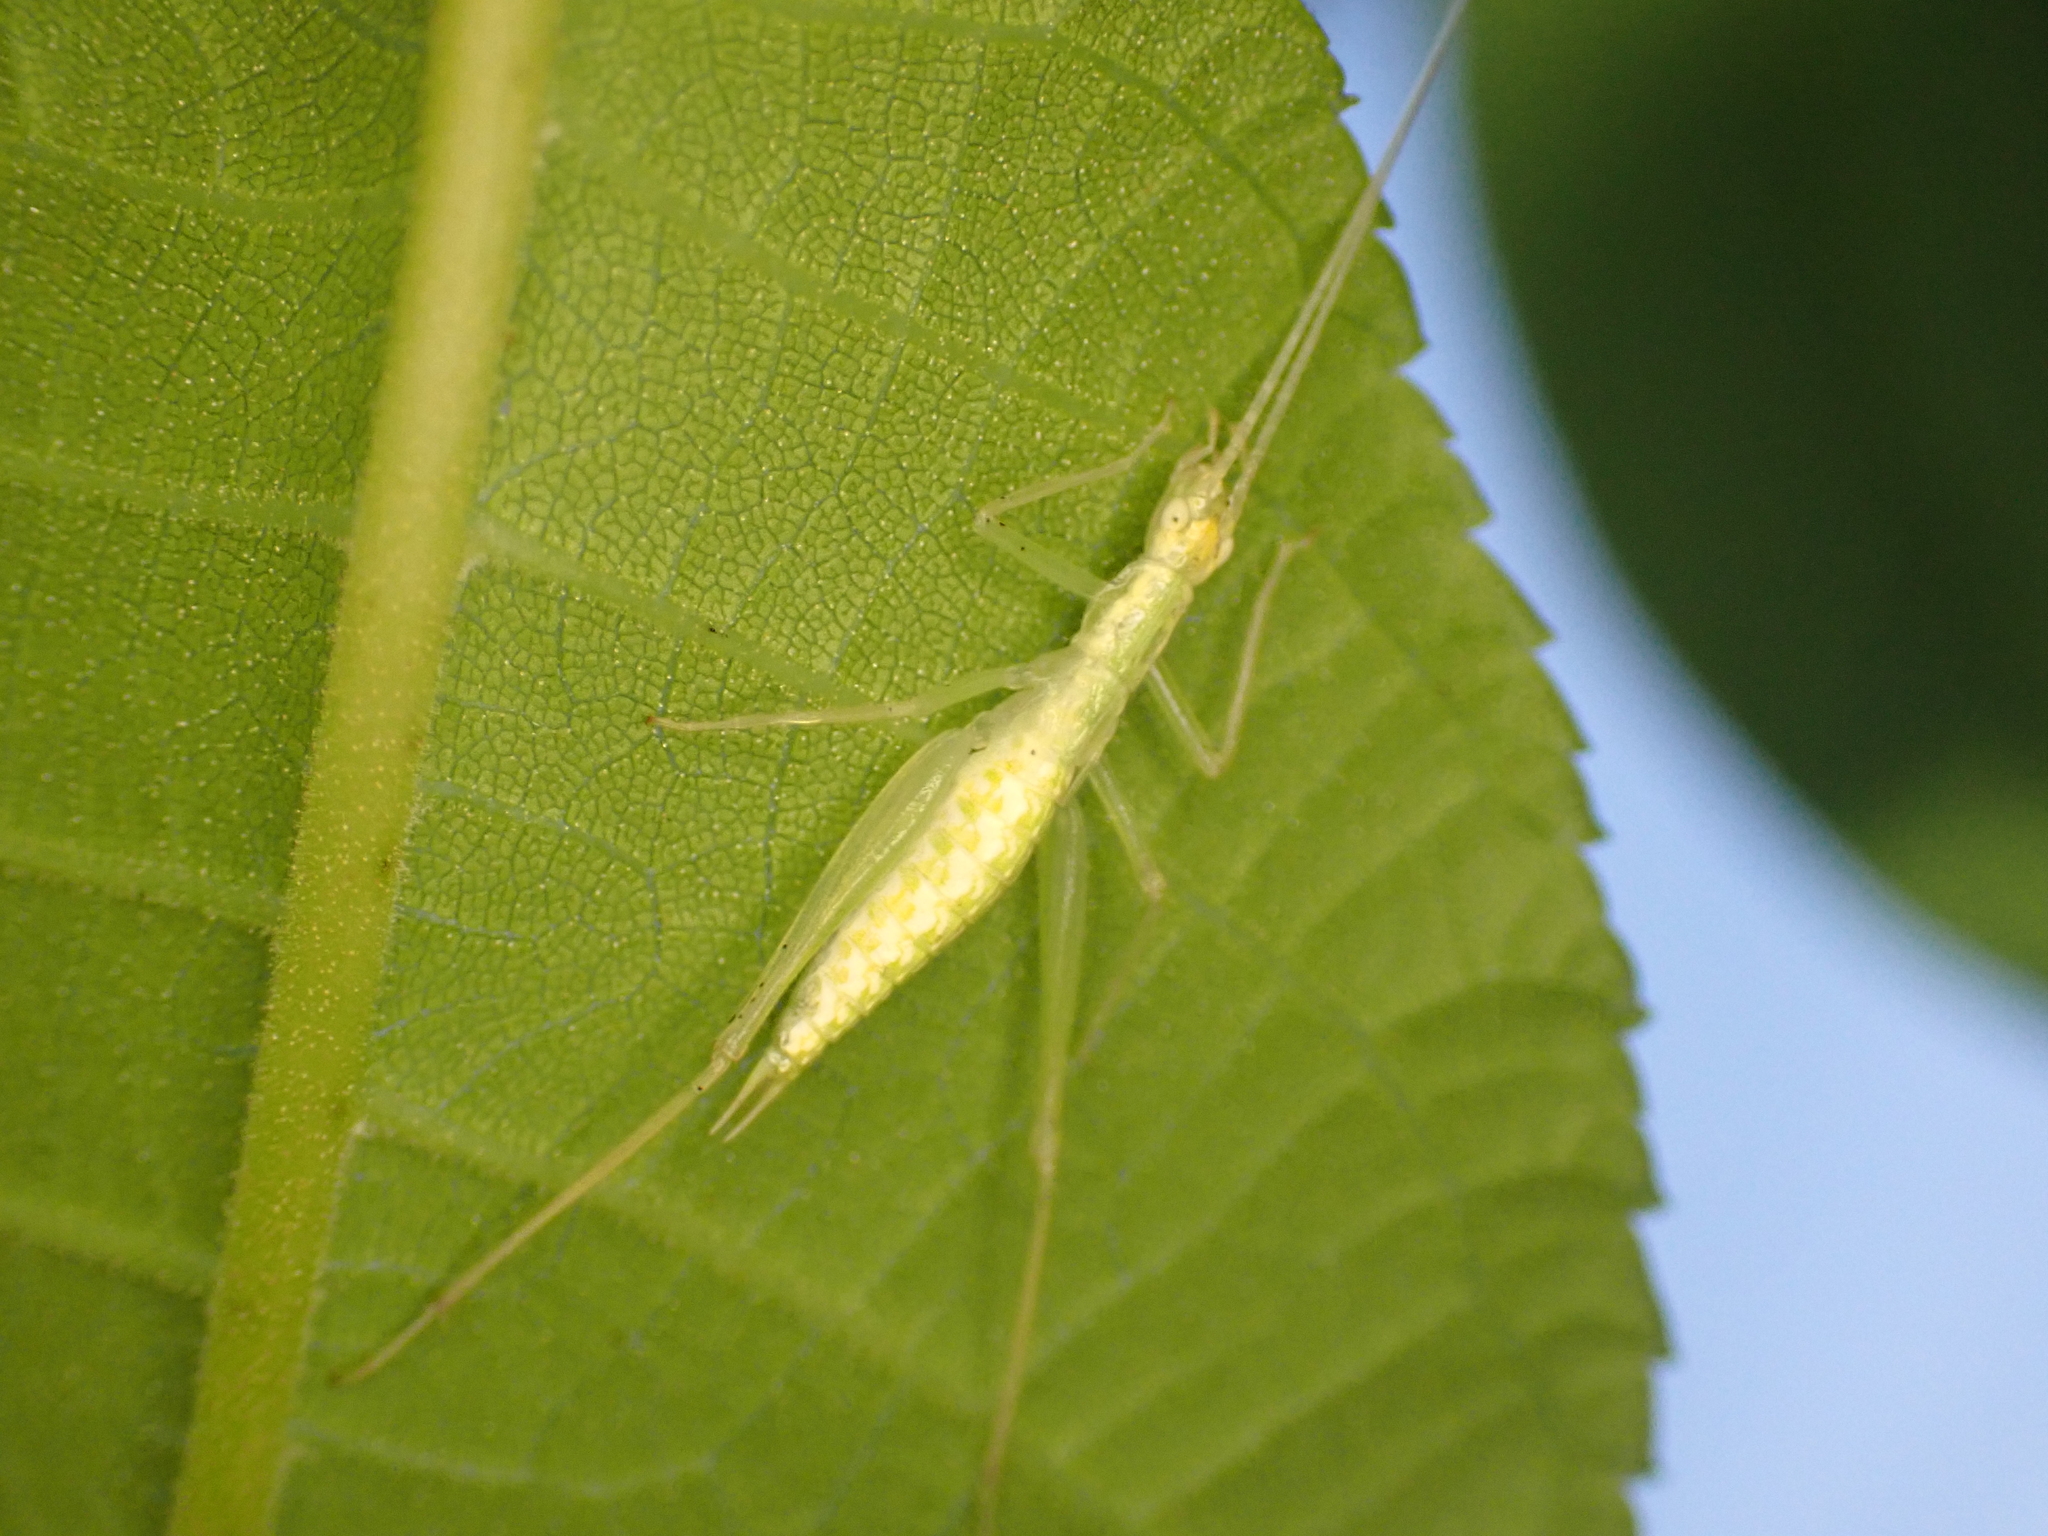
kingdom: Animalia
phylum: Arthropoda
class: Insecta
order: Orthoptera
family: Gryllidae
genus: Oecanthus
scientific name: Oecanthus niveus
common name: Narrow-winged tree cricket
